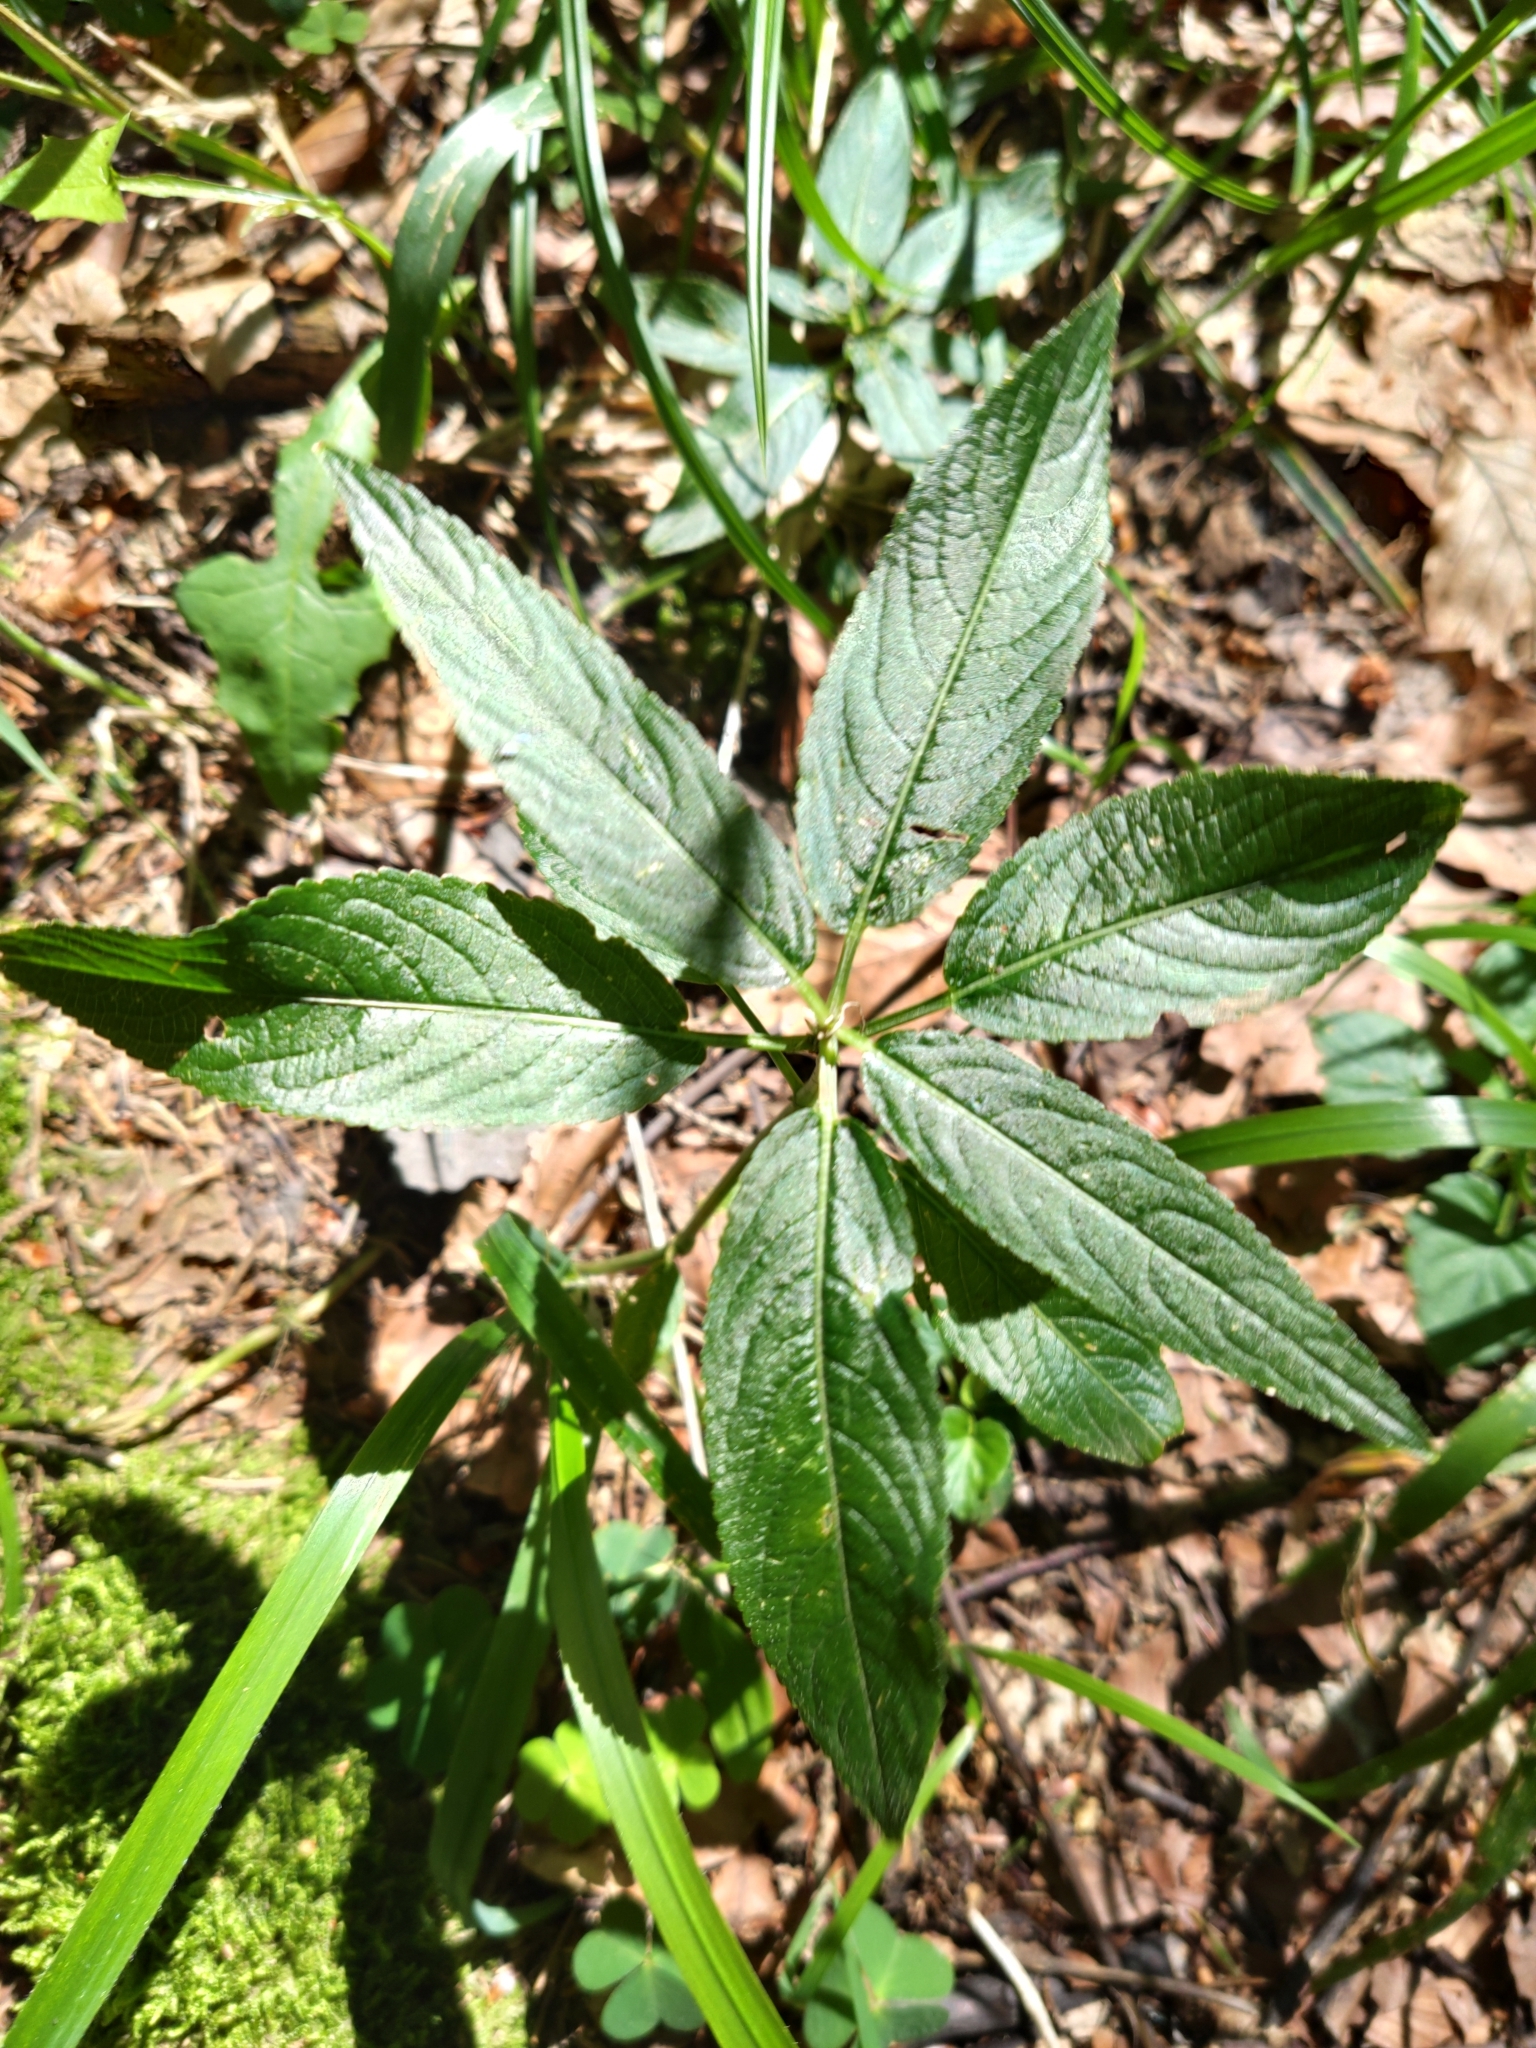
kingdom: Plantae
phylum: Tracheophyta
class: Magnoliopsida
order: Malpighiales
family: Euphorbiaceae
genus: Mercurialis
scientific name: Mercurialis perennis
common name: Dog mercury
